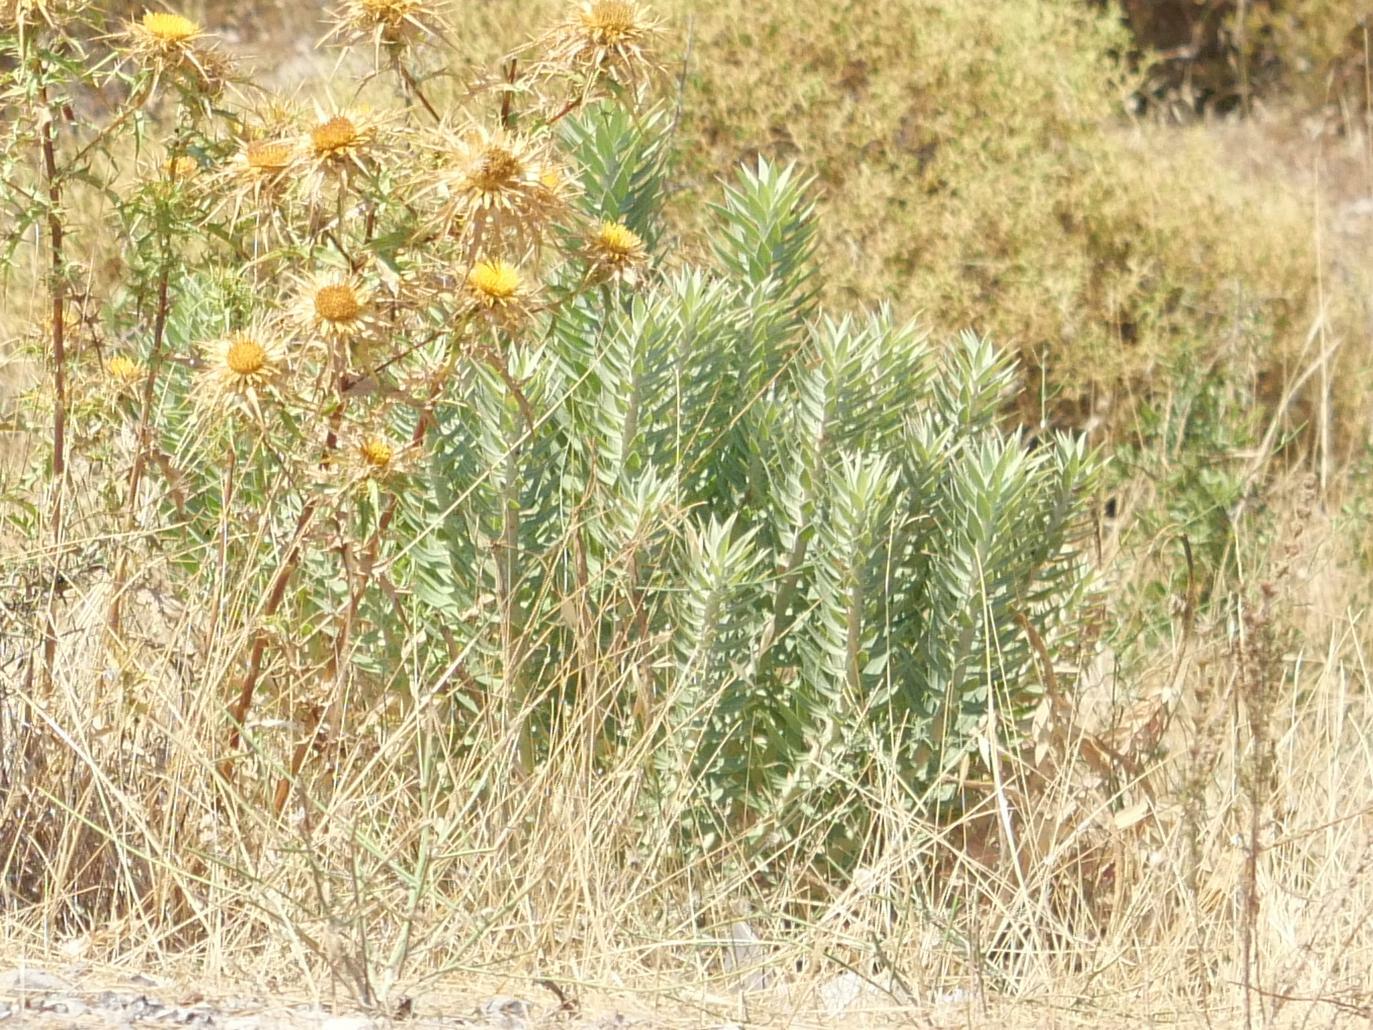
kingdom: Plantae
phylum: Tracheophyta
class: Magnoliopsida
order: Malpighiales
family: Euphorbiaceae
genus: Euphorbia
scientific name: Euphorbia rigida
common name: Upright myrtle spurge
